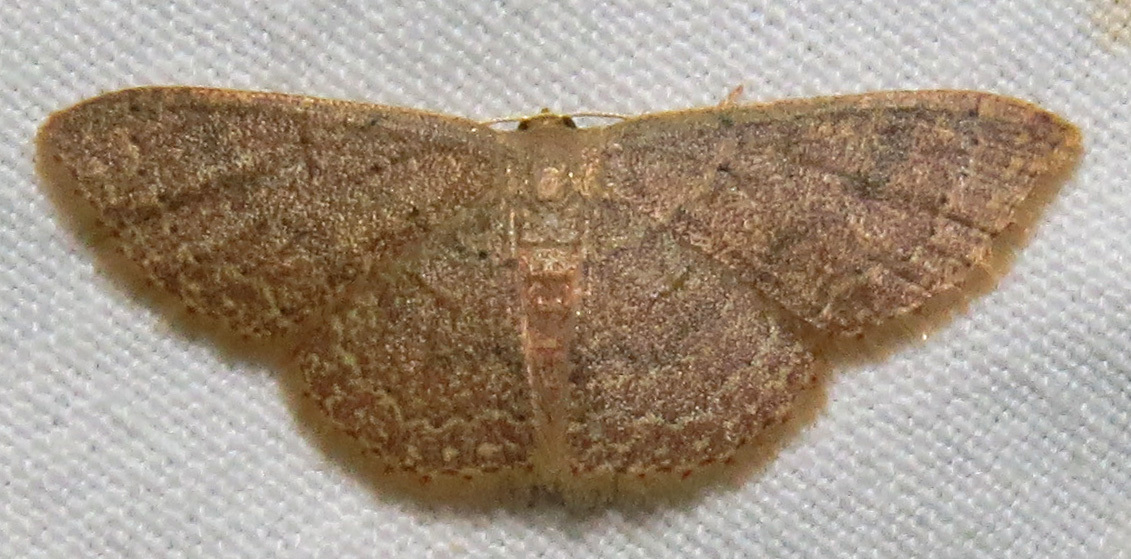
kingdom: Animalia
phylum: Arthropoda
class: Insecta
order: Lepidoptera
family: Geometridae
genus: Pleuroprucha
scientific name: Pleuroprucha insulsaria
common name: Common tan wave
